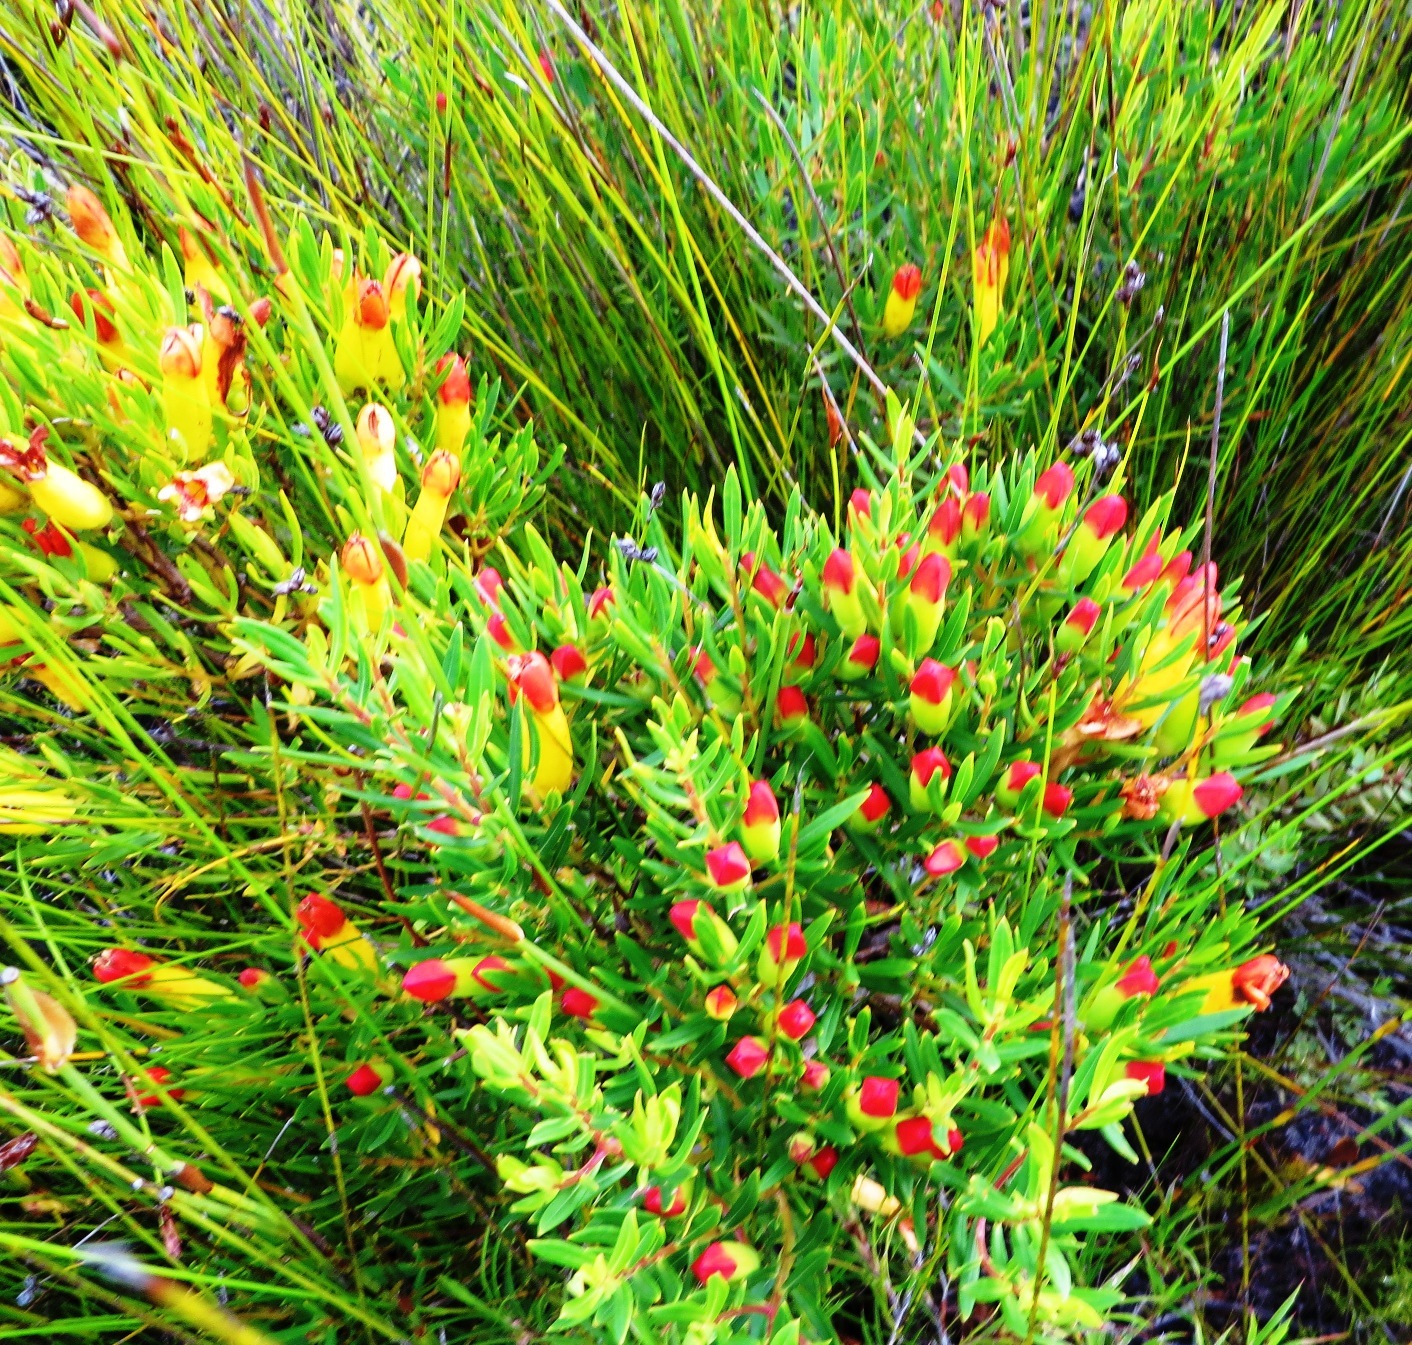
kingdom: Plantae
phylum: Tracheophyta
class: Magnoliopsida
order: Myrtales
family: Penaeaceae
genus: Endonema
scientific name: Endonema retzioides
